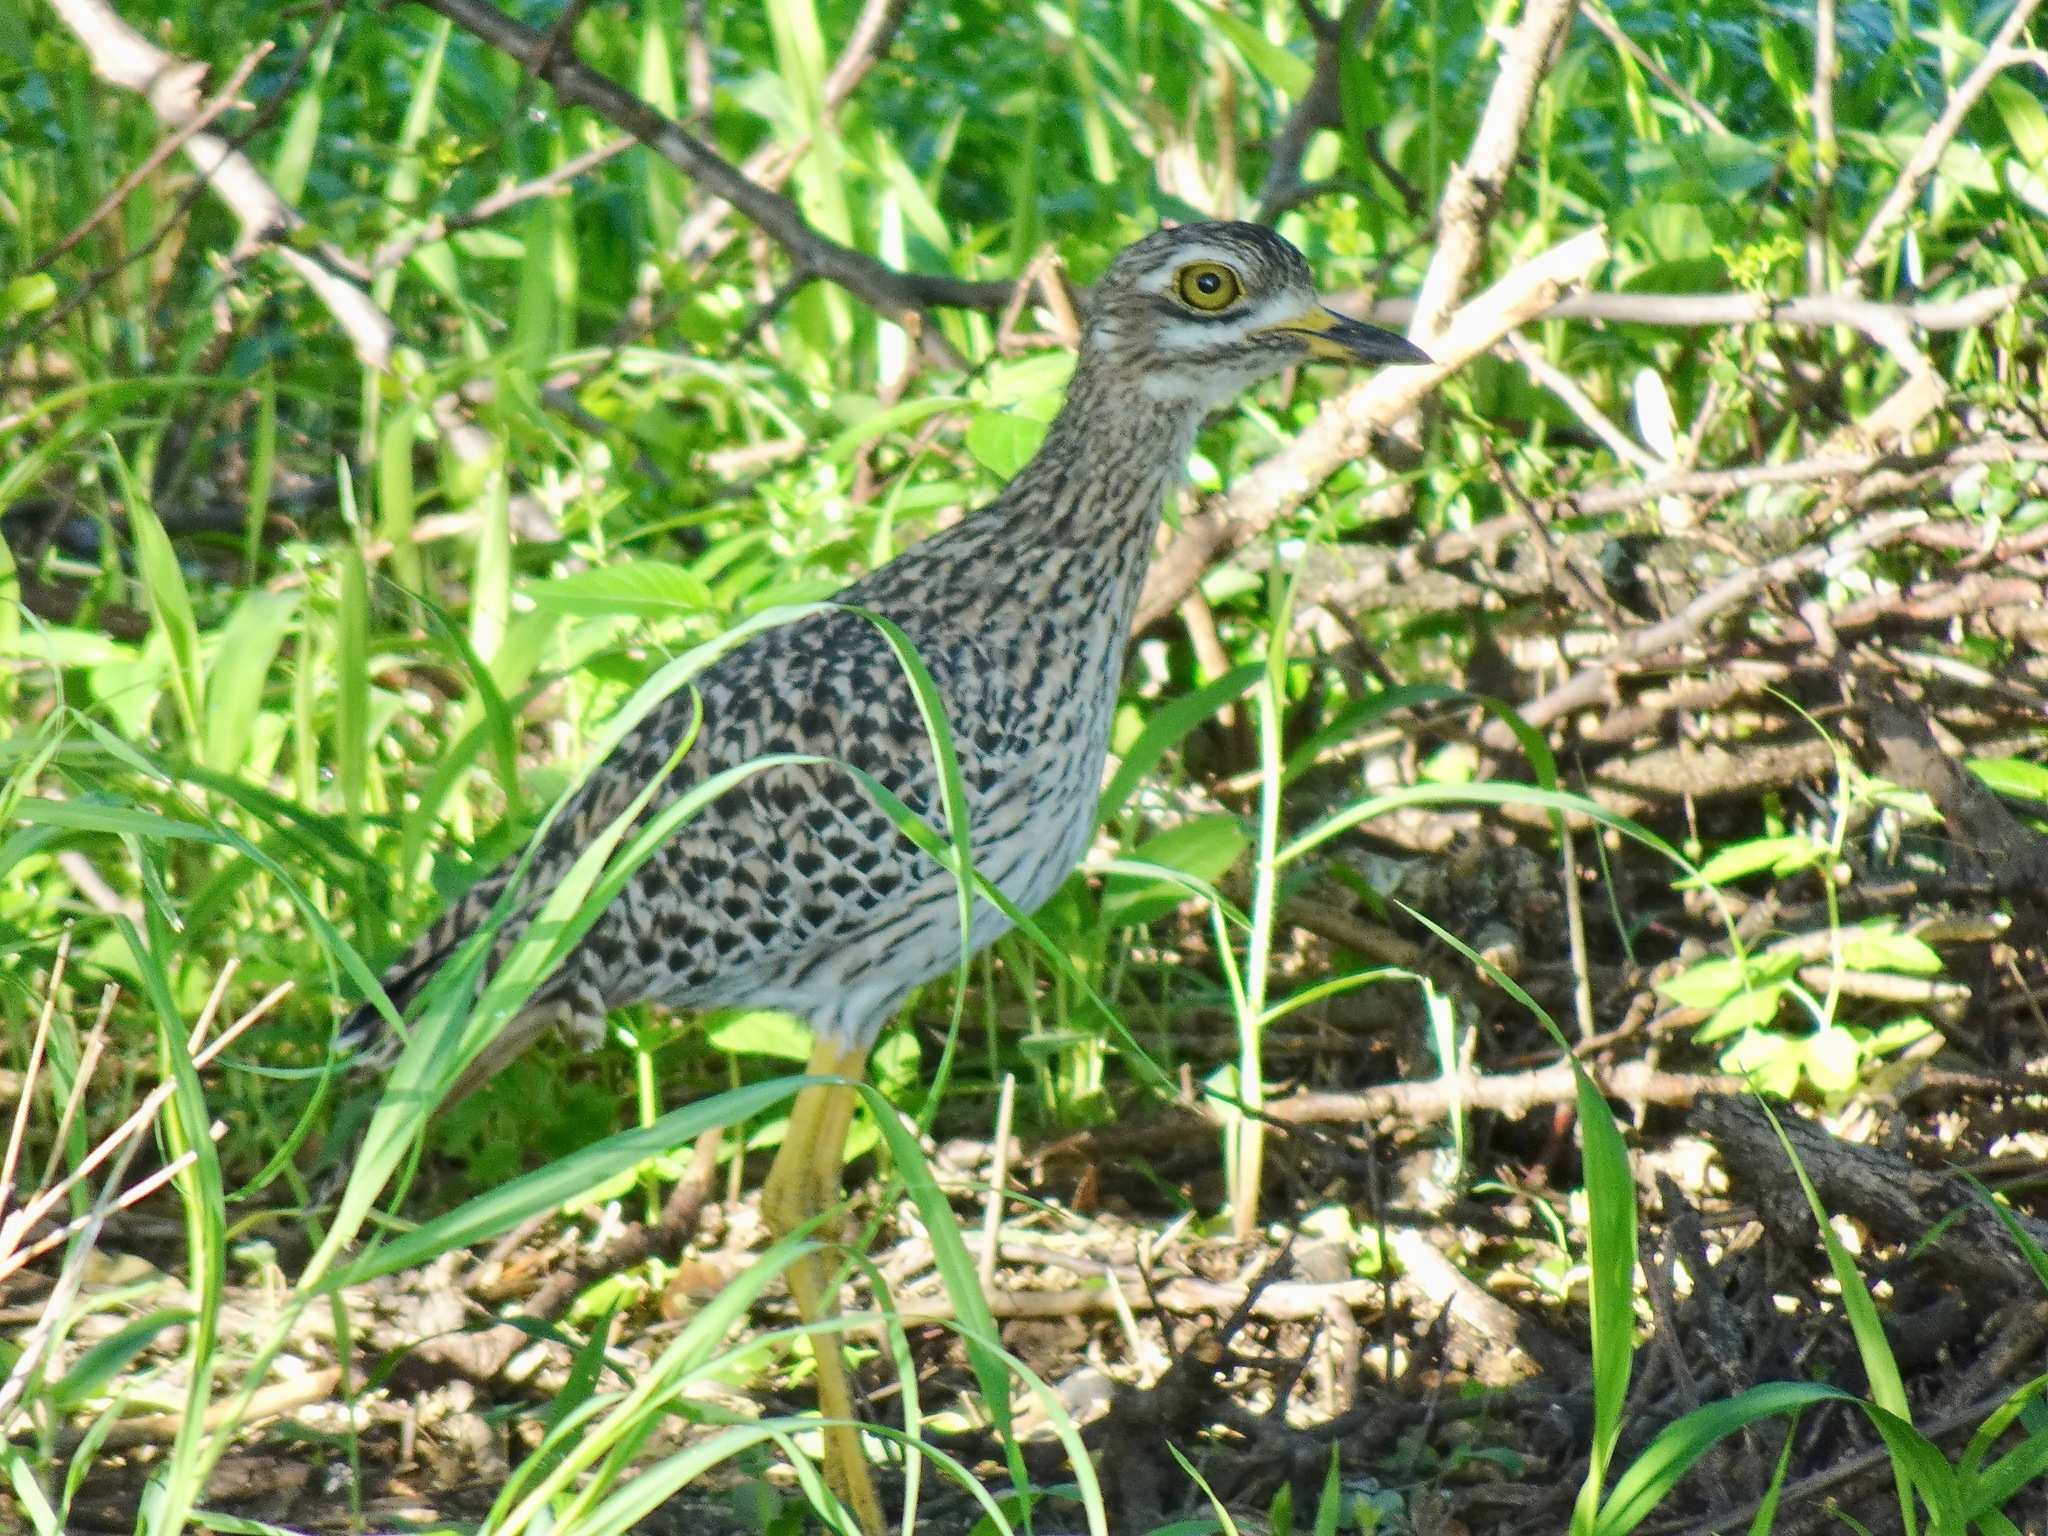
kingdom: Animalia
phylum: Chordata
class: Aves
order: Charadriiformes
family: Burhinidae
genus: Burhinus
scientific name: Burhinus capensis
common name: Spotted thick-knee
